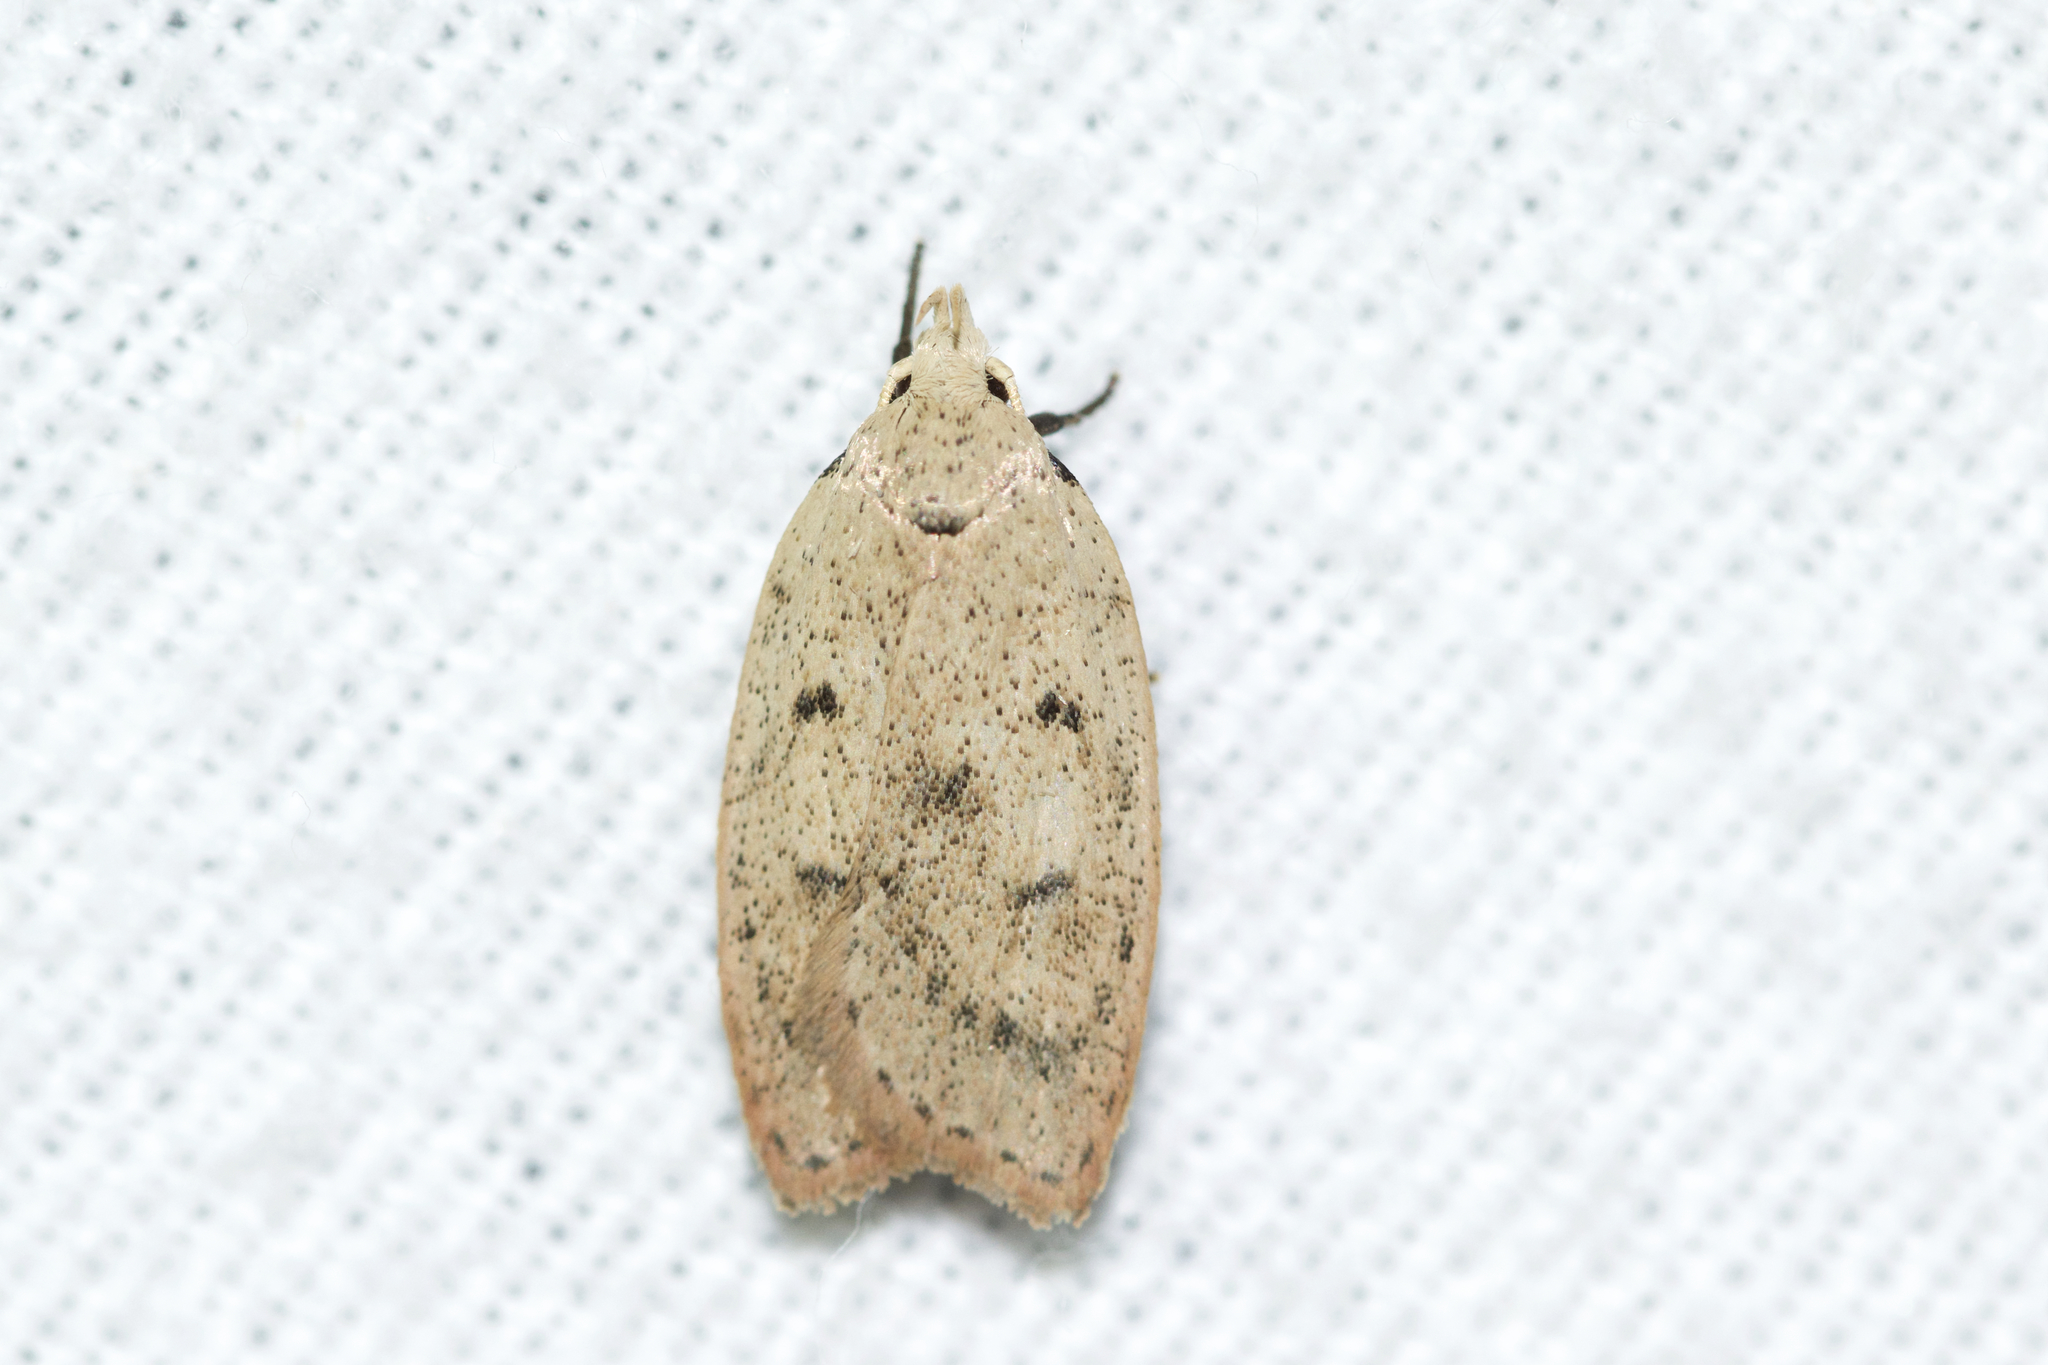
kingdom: Animalia
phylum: Arthropoda
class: Insecta
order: Lepidoptera
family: Peleopodidae
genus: Machimia
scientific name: Machimia tentoriferella
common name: Gold-striped leaftier moth
